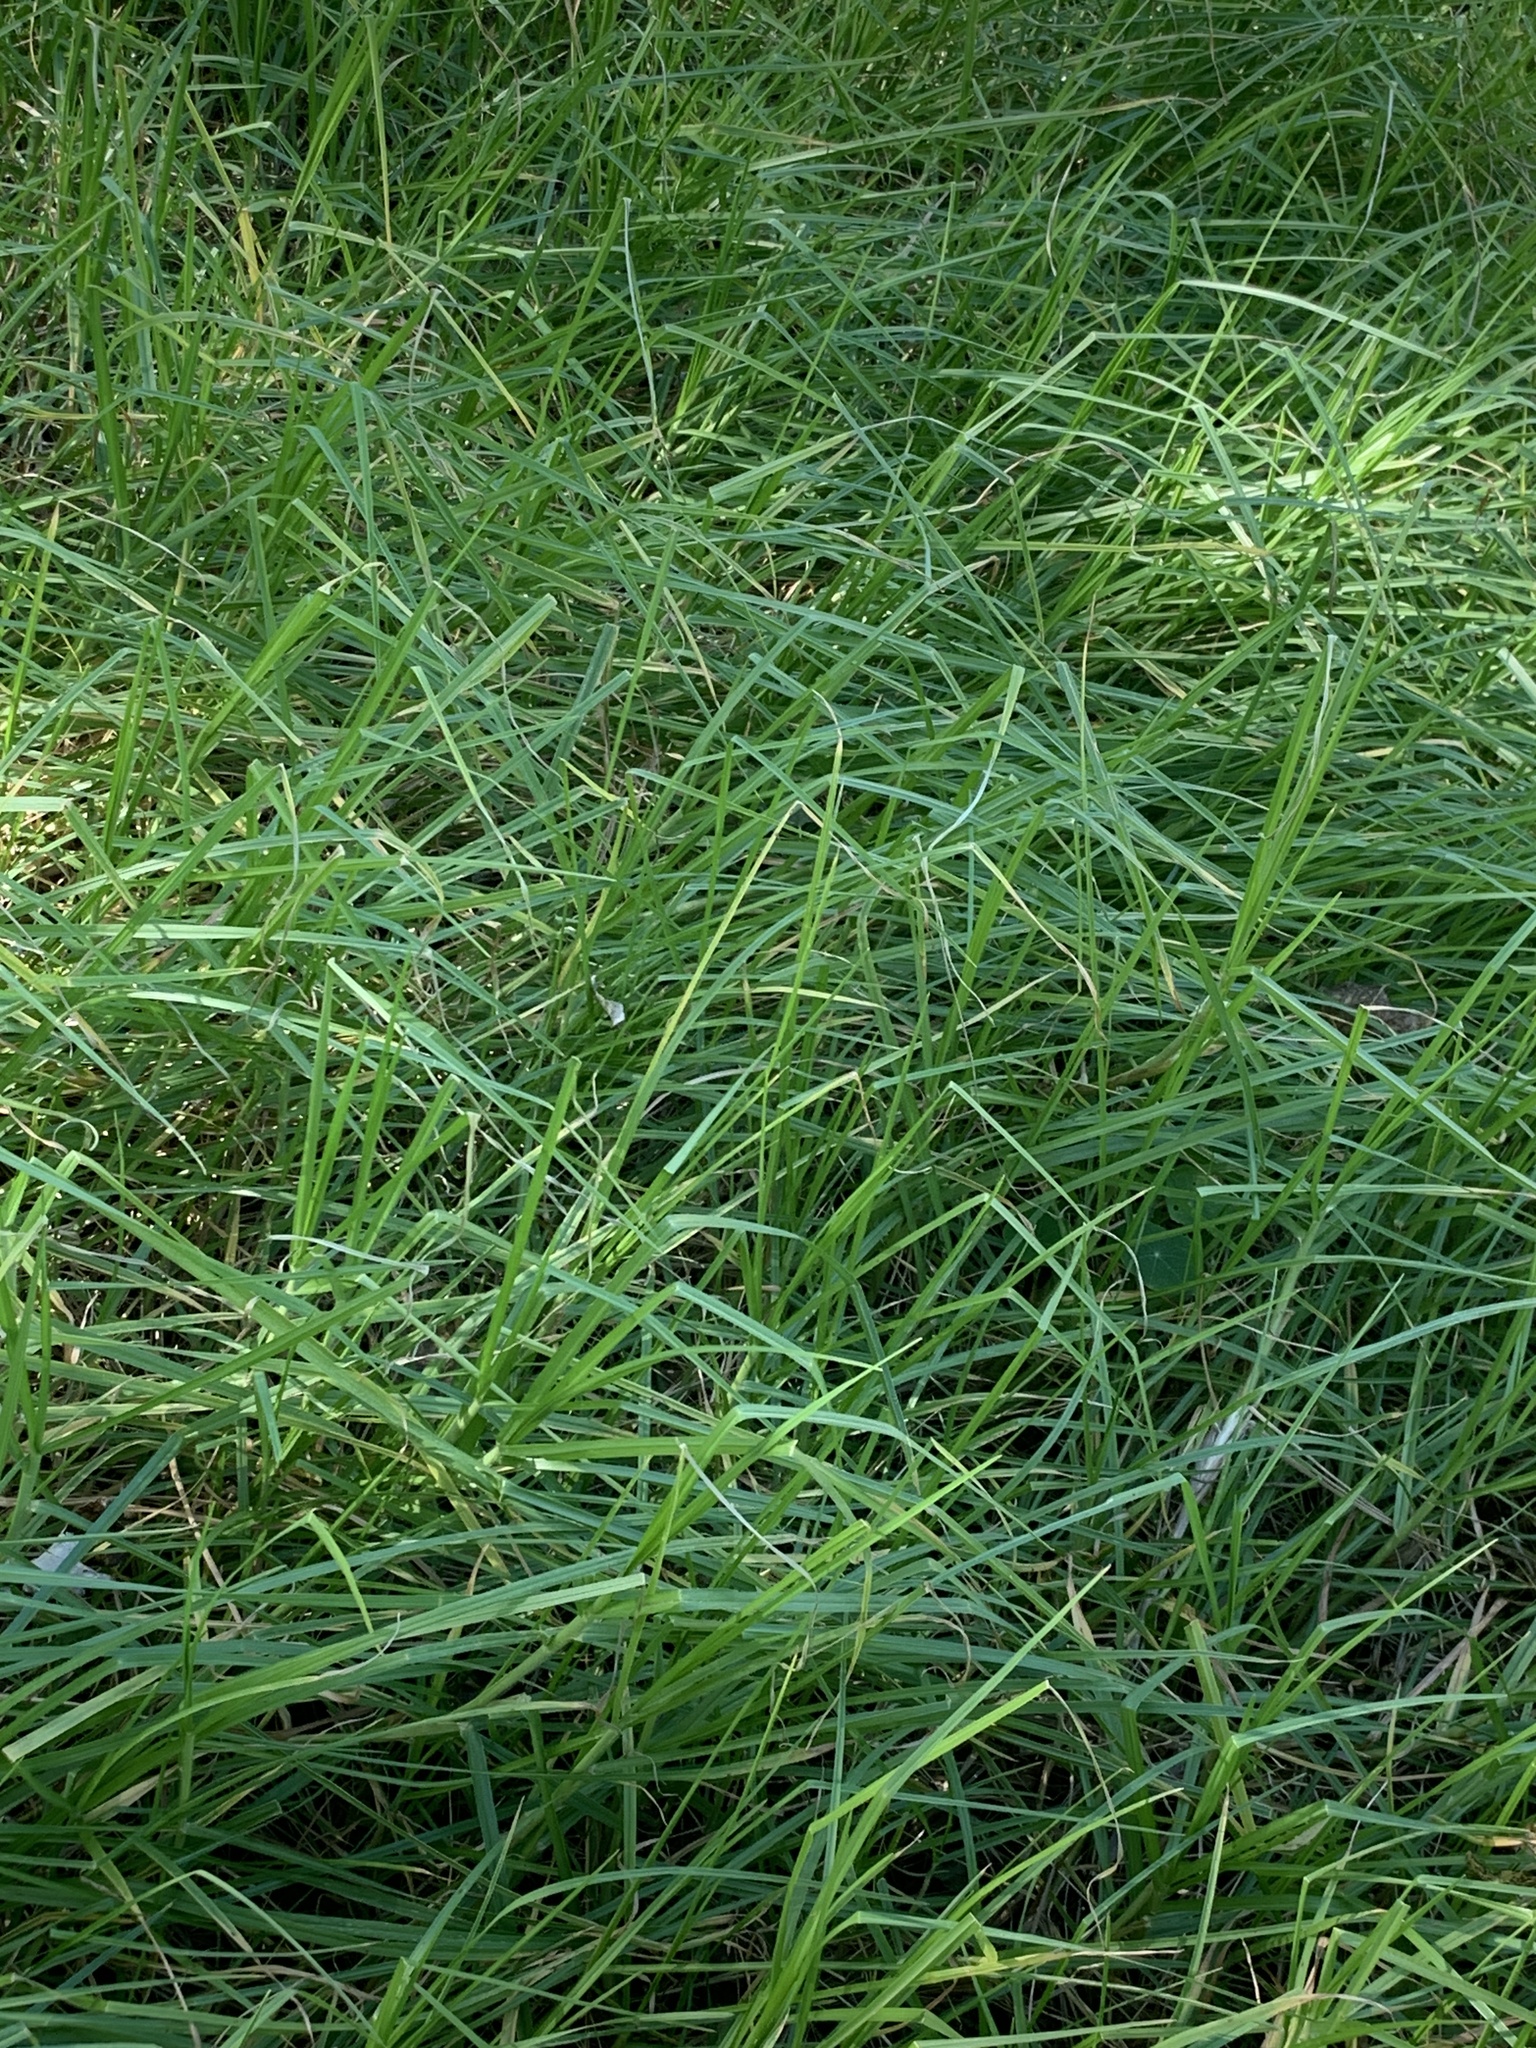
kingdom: Plantae
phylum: Tracheophyta
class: Liliopsida
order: Poales
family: Poaceae
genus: Cenchrus
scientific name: Cenchrus clandestinus
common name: Kikuyugrass
